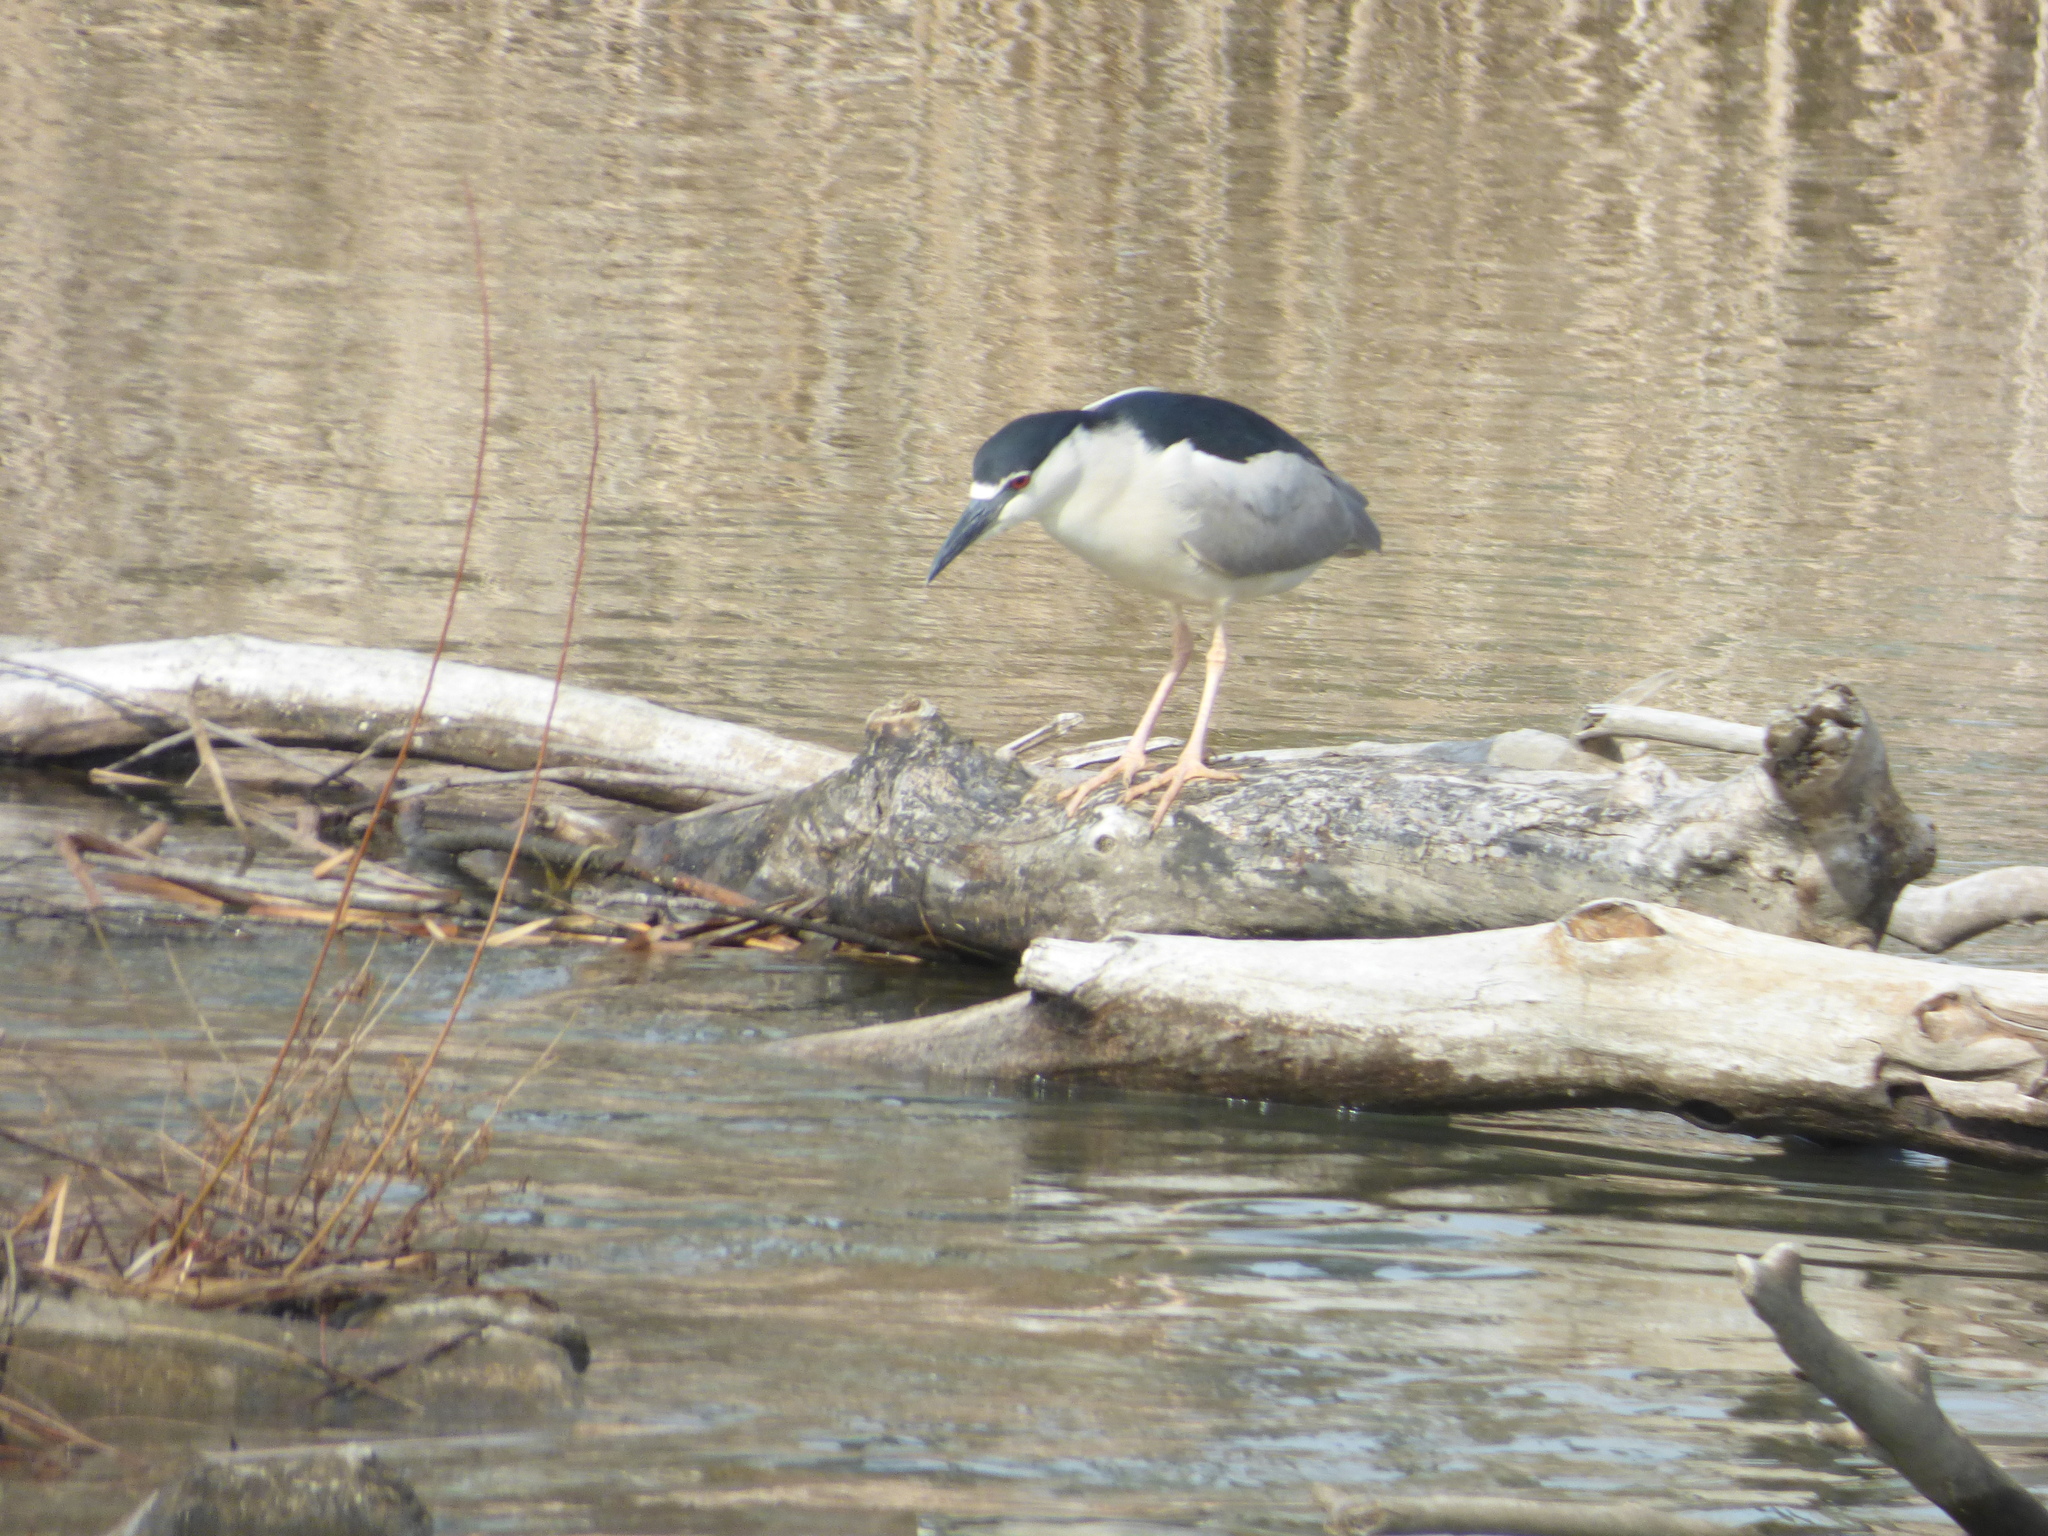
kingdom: Animalia
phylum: Chordata
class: Aves
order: Pelecaniformes
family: Ardeidae
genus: Nycticorax
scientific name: Nycticorax nycticorax
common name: Black-crowned night heron
